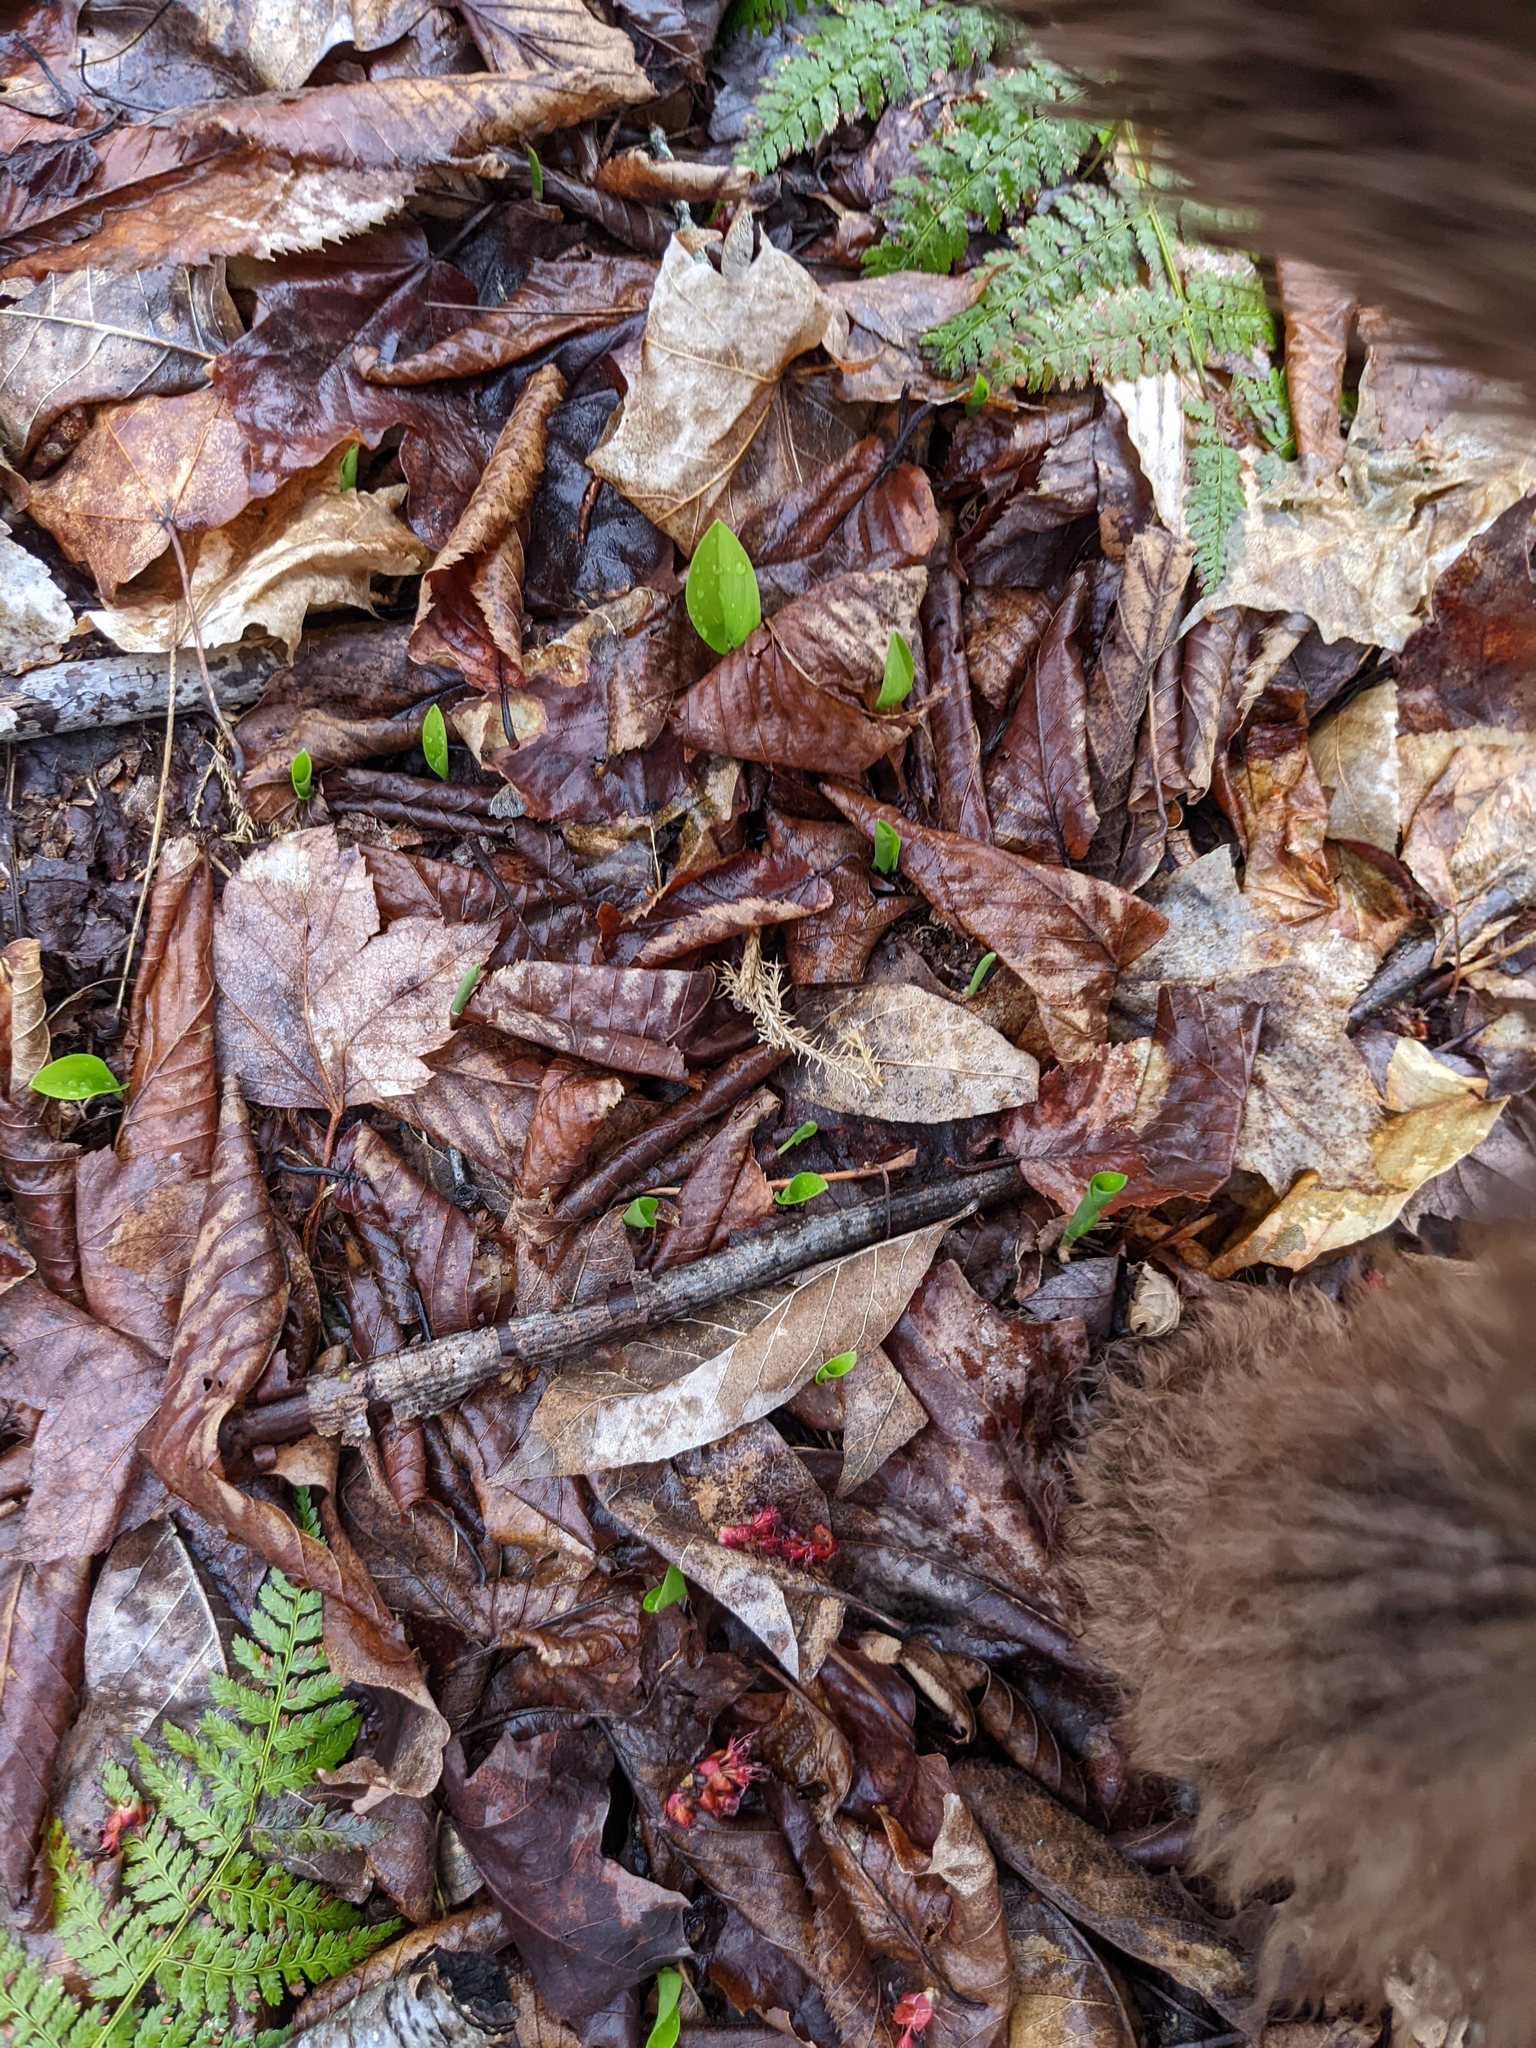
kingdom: Plantae
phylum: Tracheophyta
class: Liliopsida
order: Asparagales
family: Asparagaceae
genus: Maianthemum
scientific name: Maianthemum canadense
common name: False lily-of-the-valley
